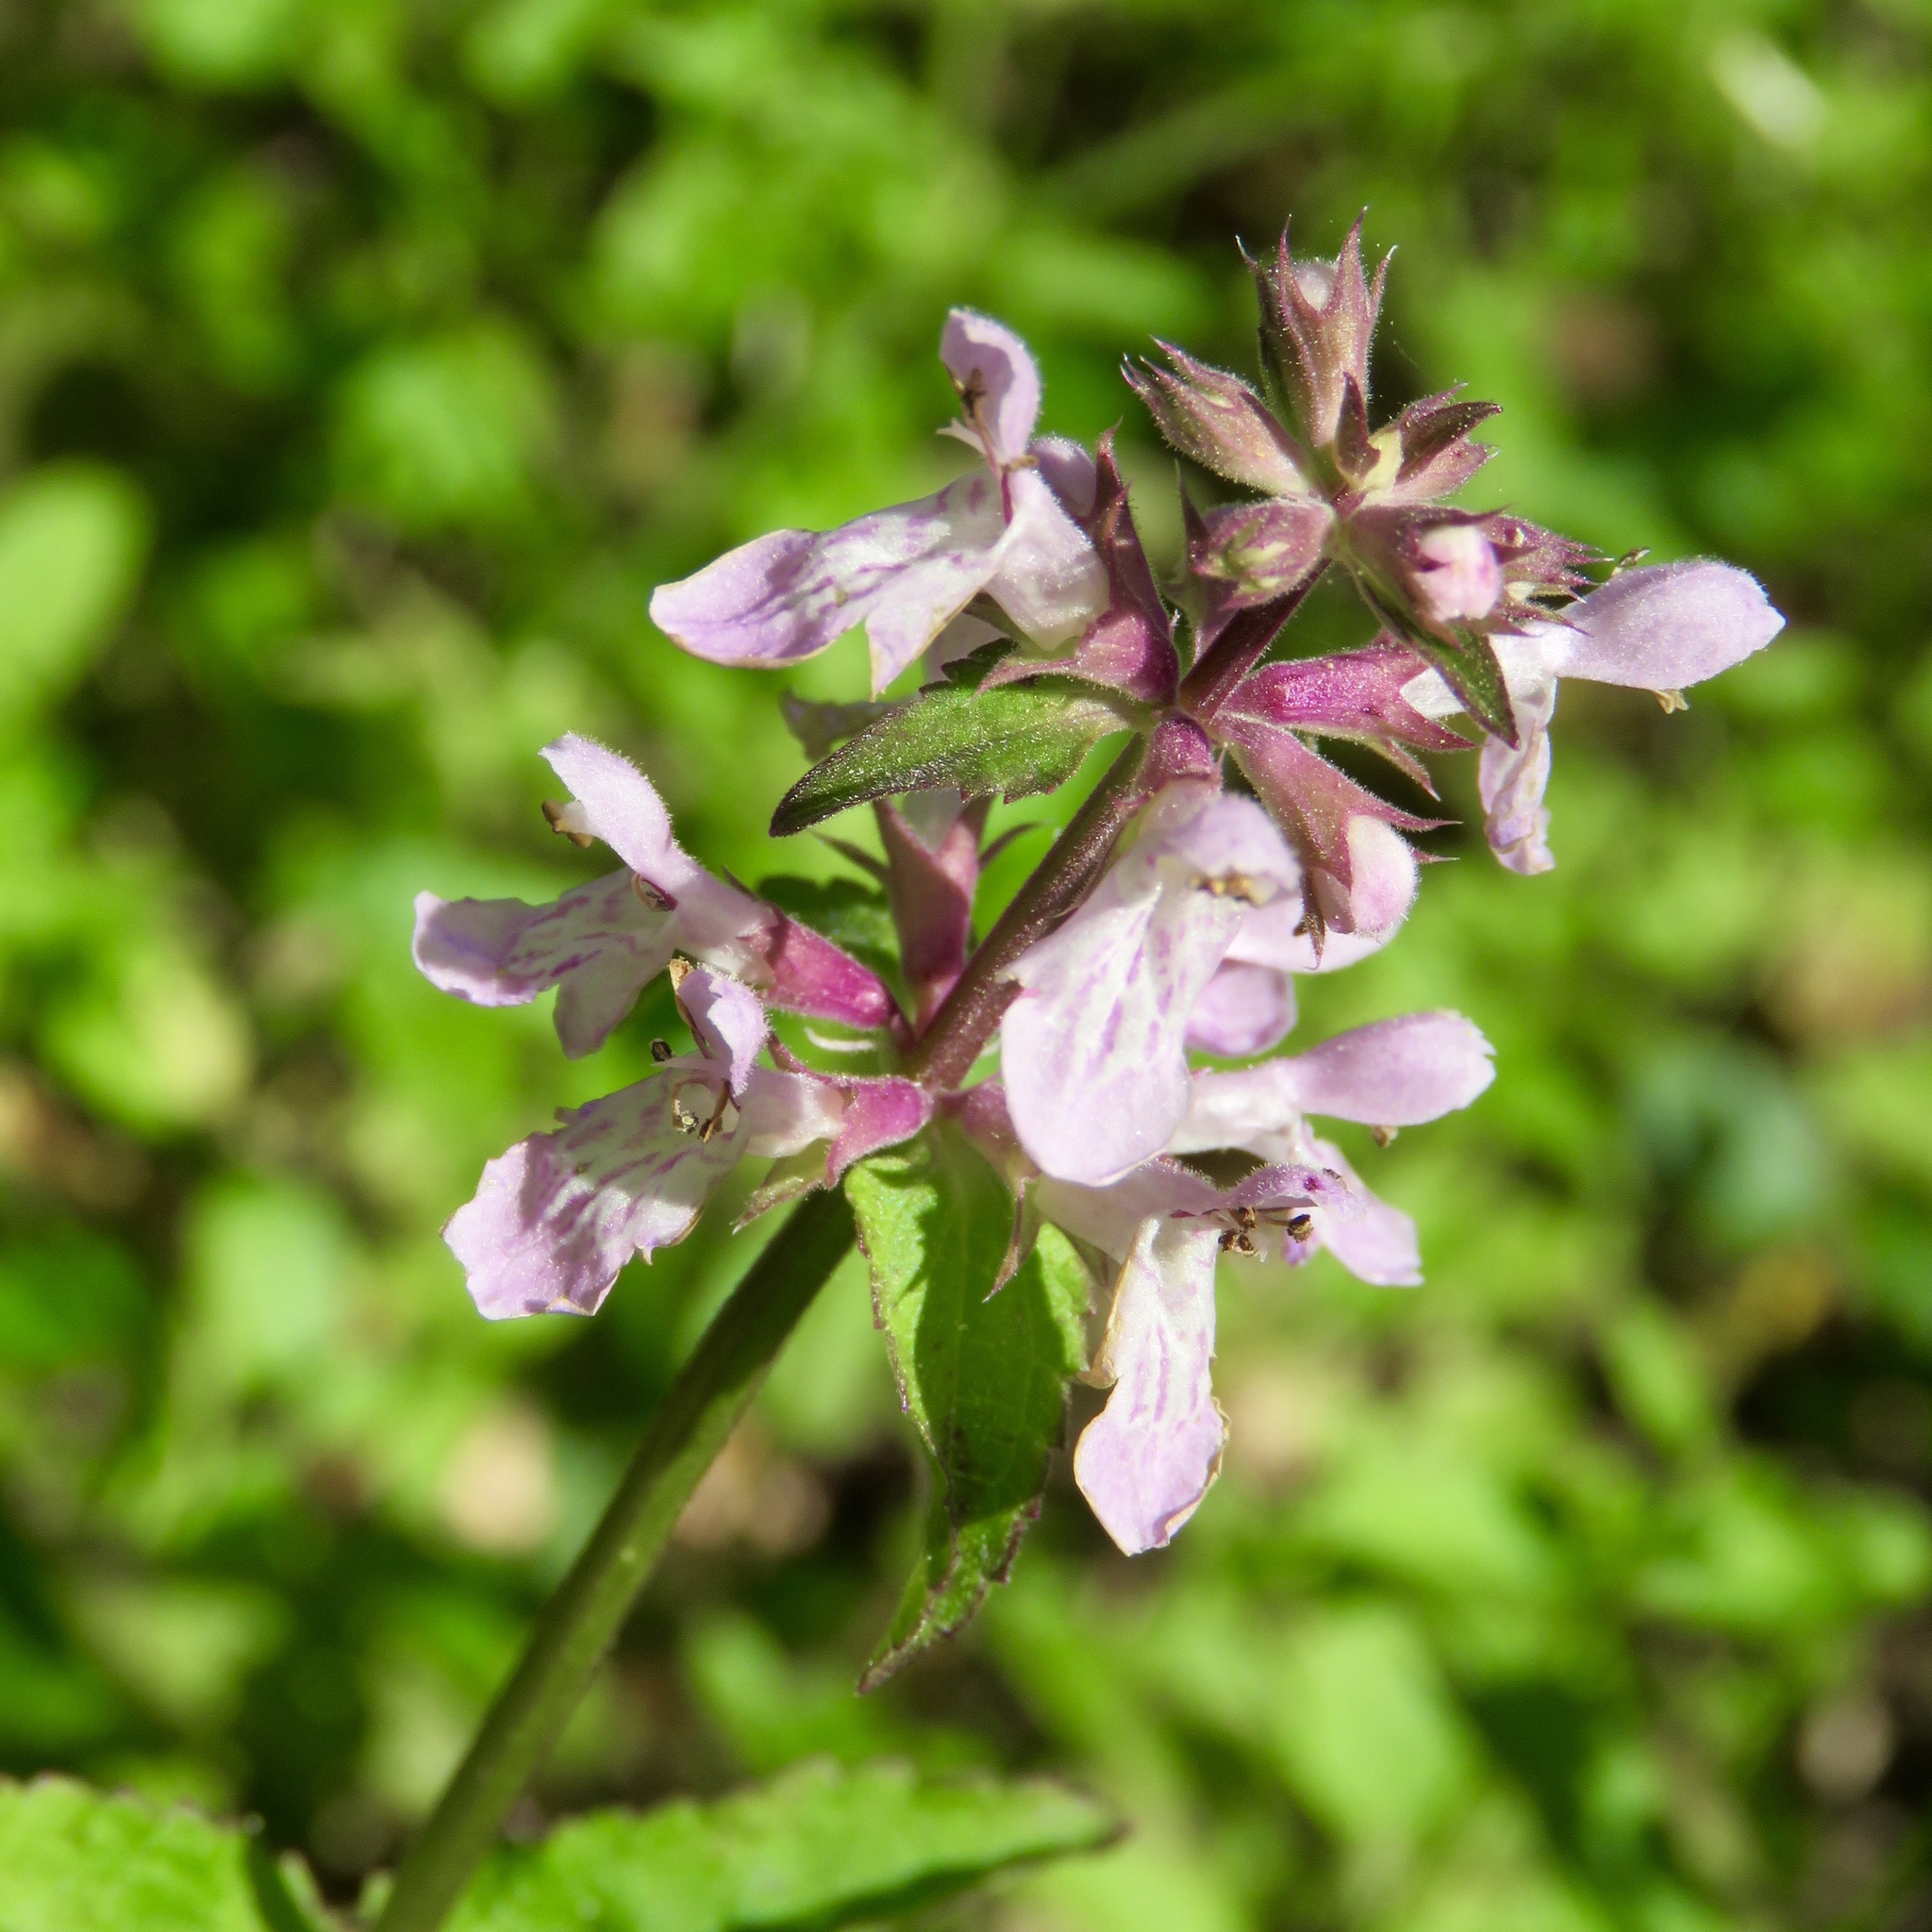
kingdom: Plantae
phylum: Tracheophyta
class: Magnoliopsida
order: Lamiales
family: Lamiaceae
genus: Stachys
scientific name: Stachys floridana
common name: Florida betony
